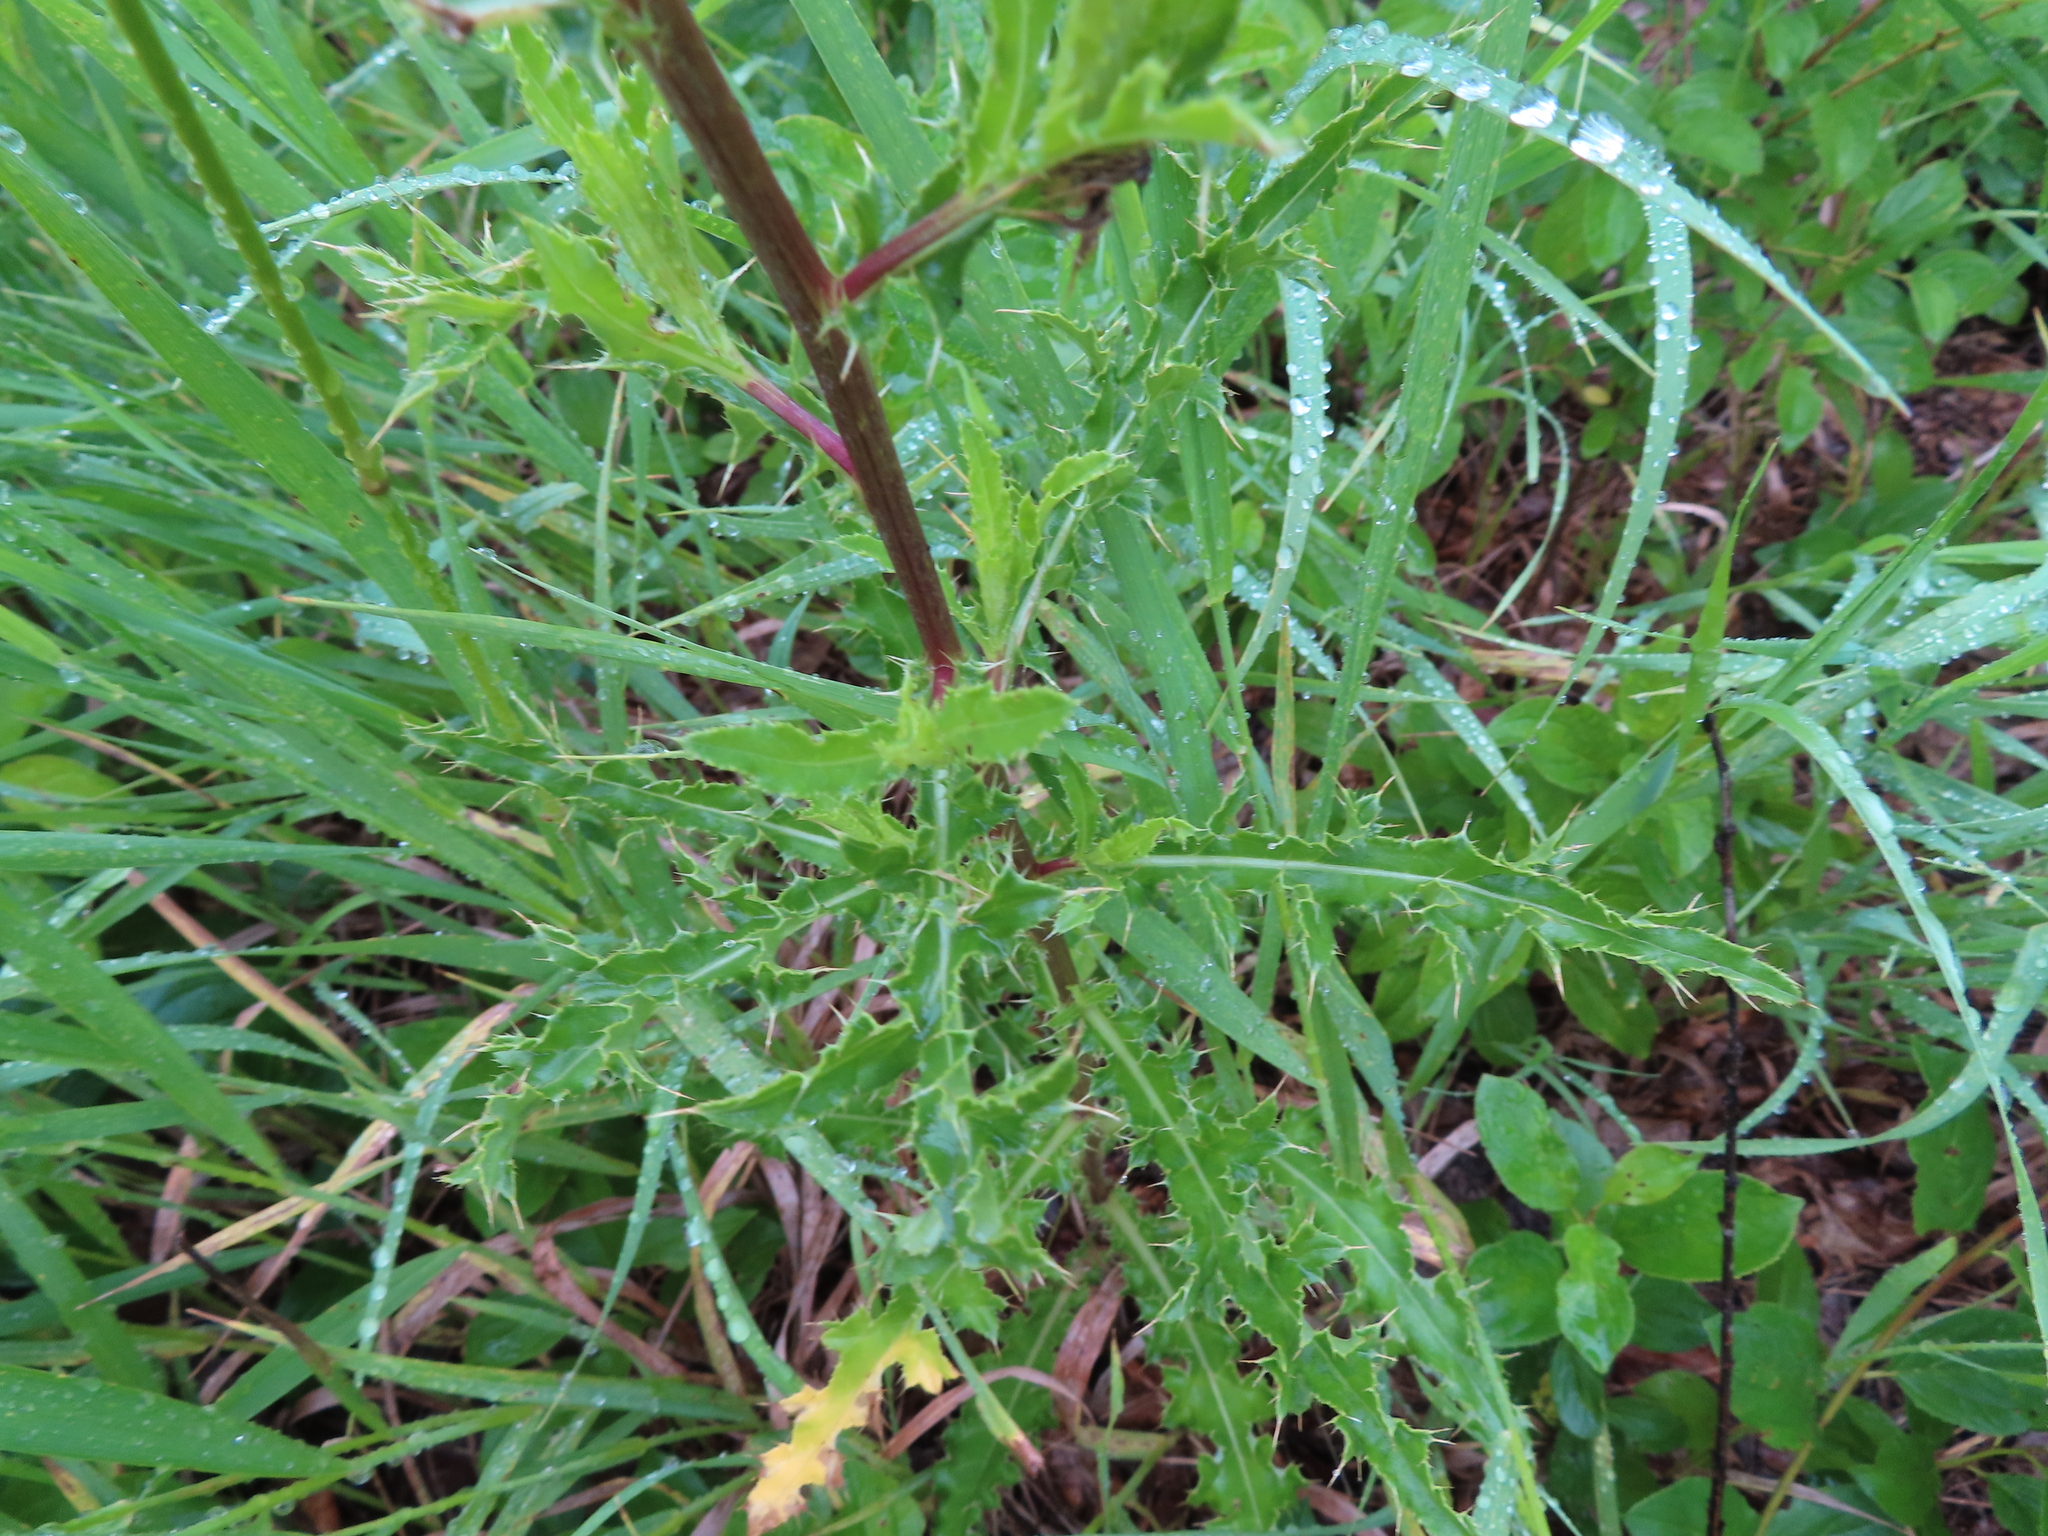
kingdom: Plantae
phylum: Tracheophyta
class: Magnoliopsida
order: Asterales
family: Asteraceae
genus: Cirsium
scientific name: Cirsium arvense
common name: Creeping thistle
